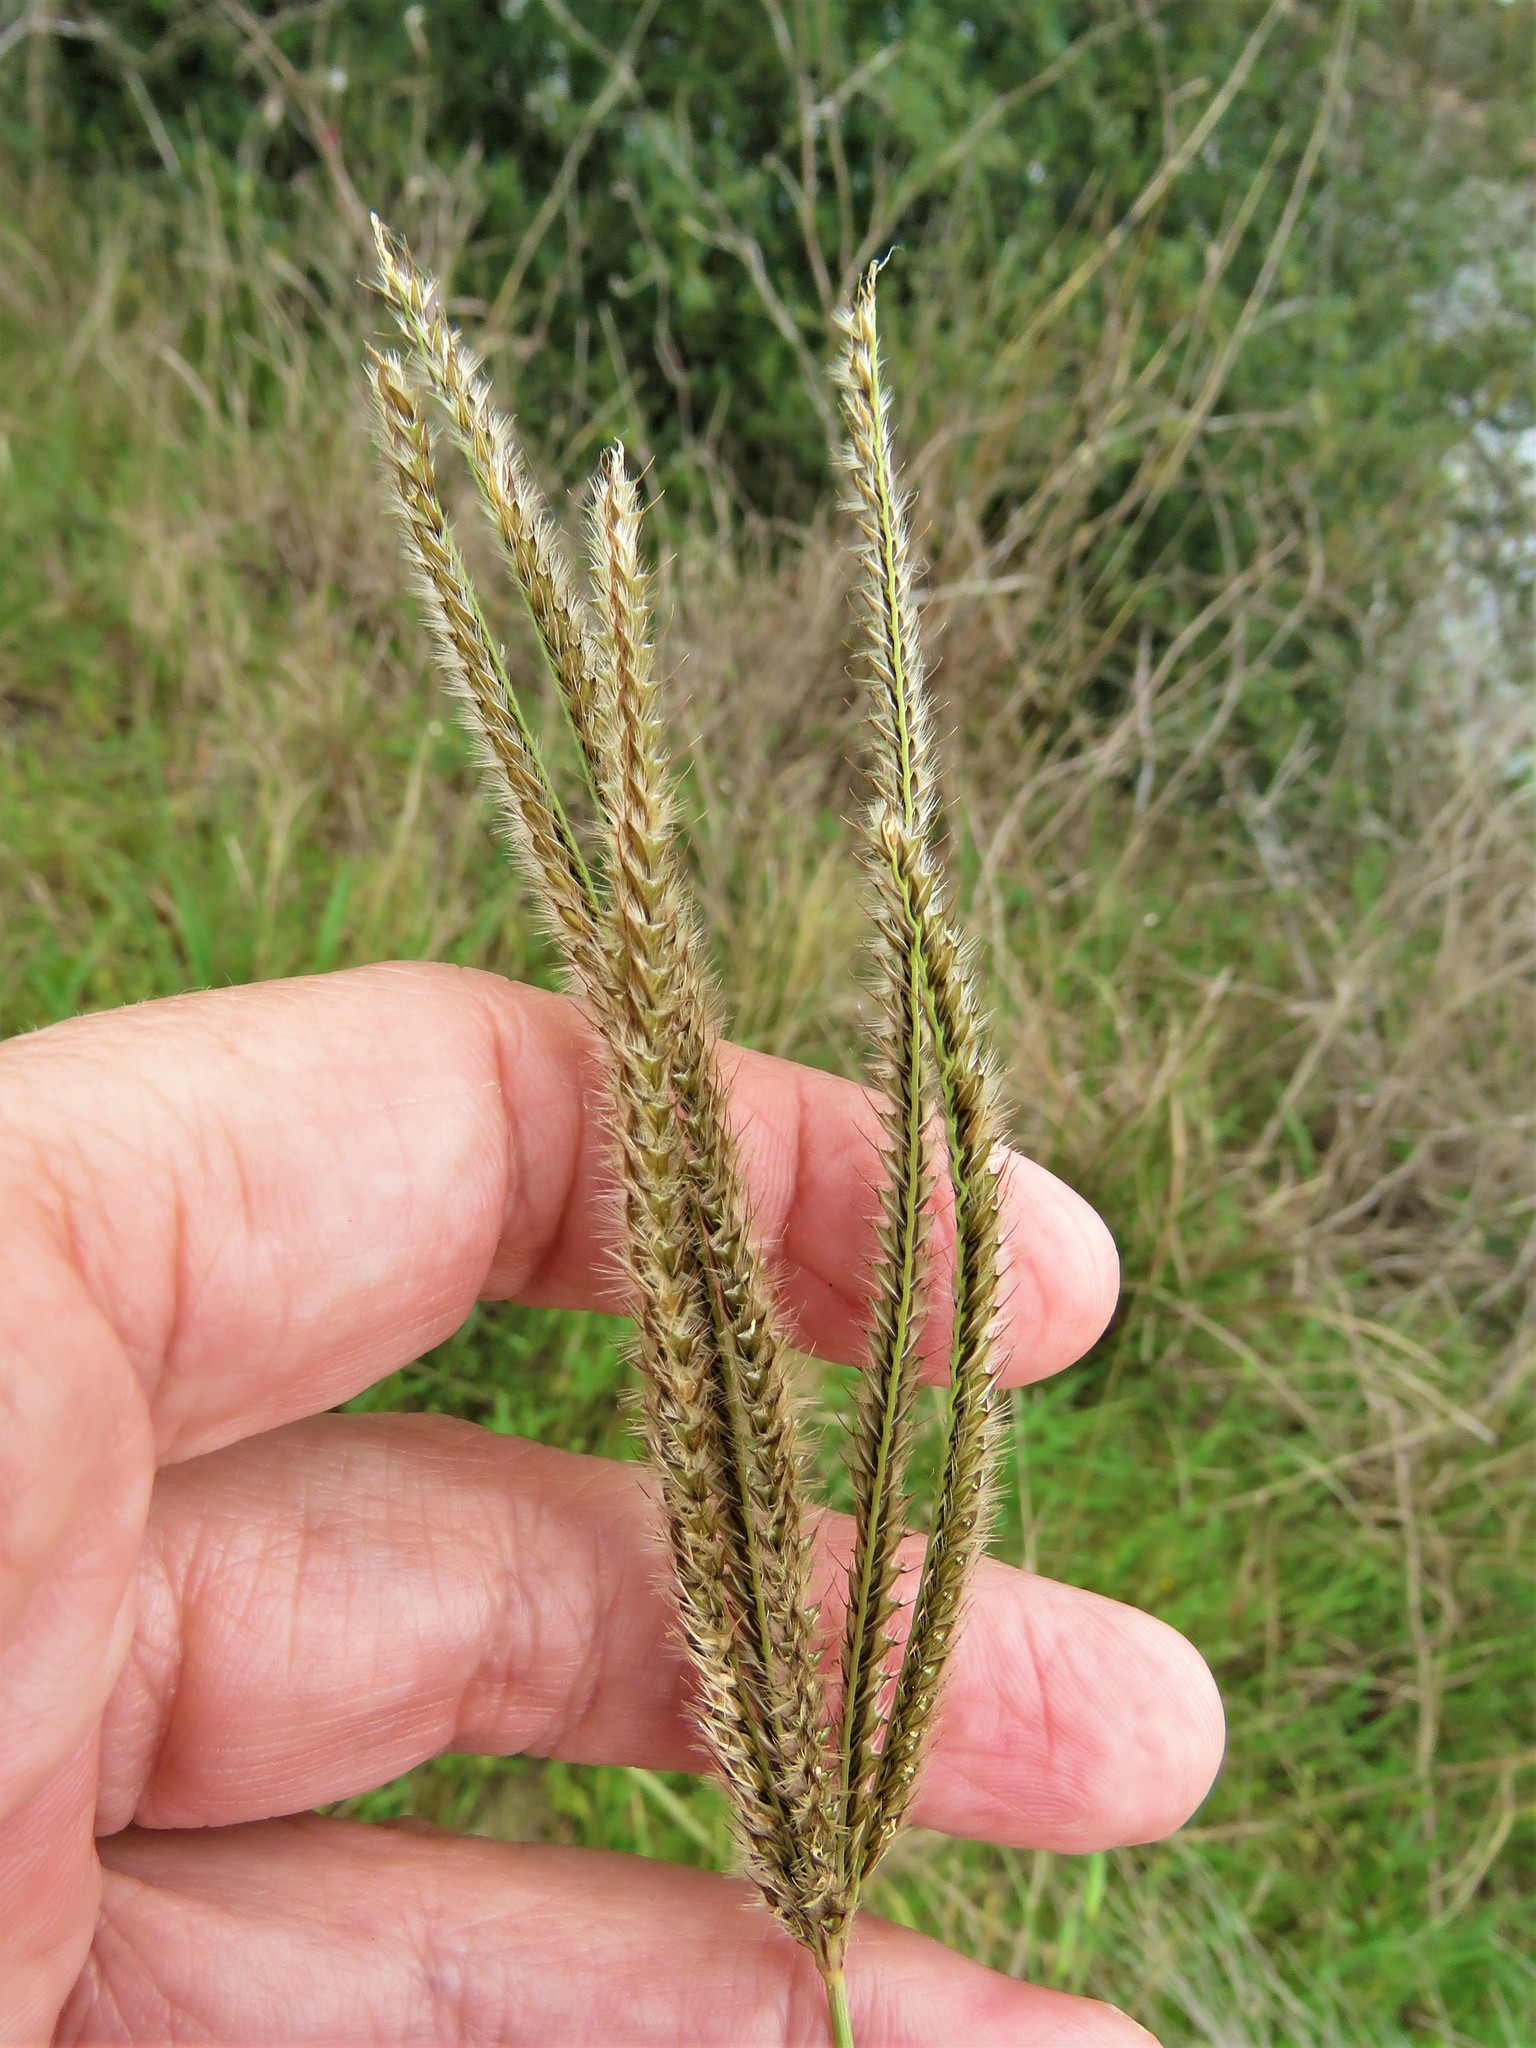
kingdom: Plantae
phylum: Tracheophyta
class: Liliopsida
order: Poales
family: Poaceae
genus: Stapfochloa
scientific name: Stapfochloa canterae
